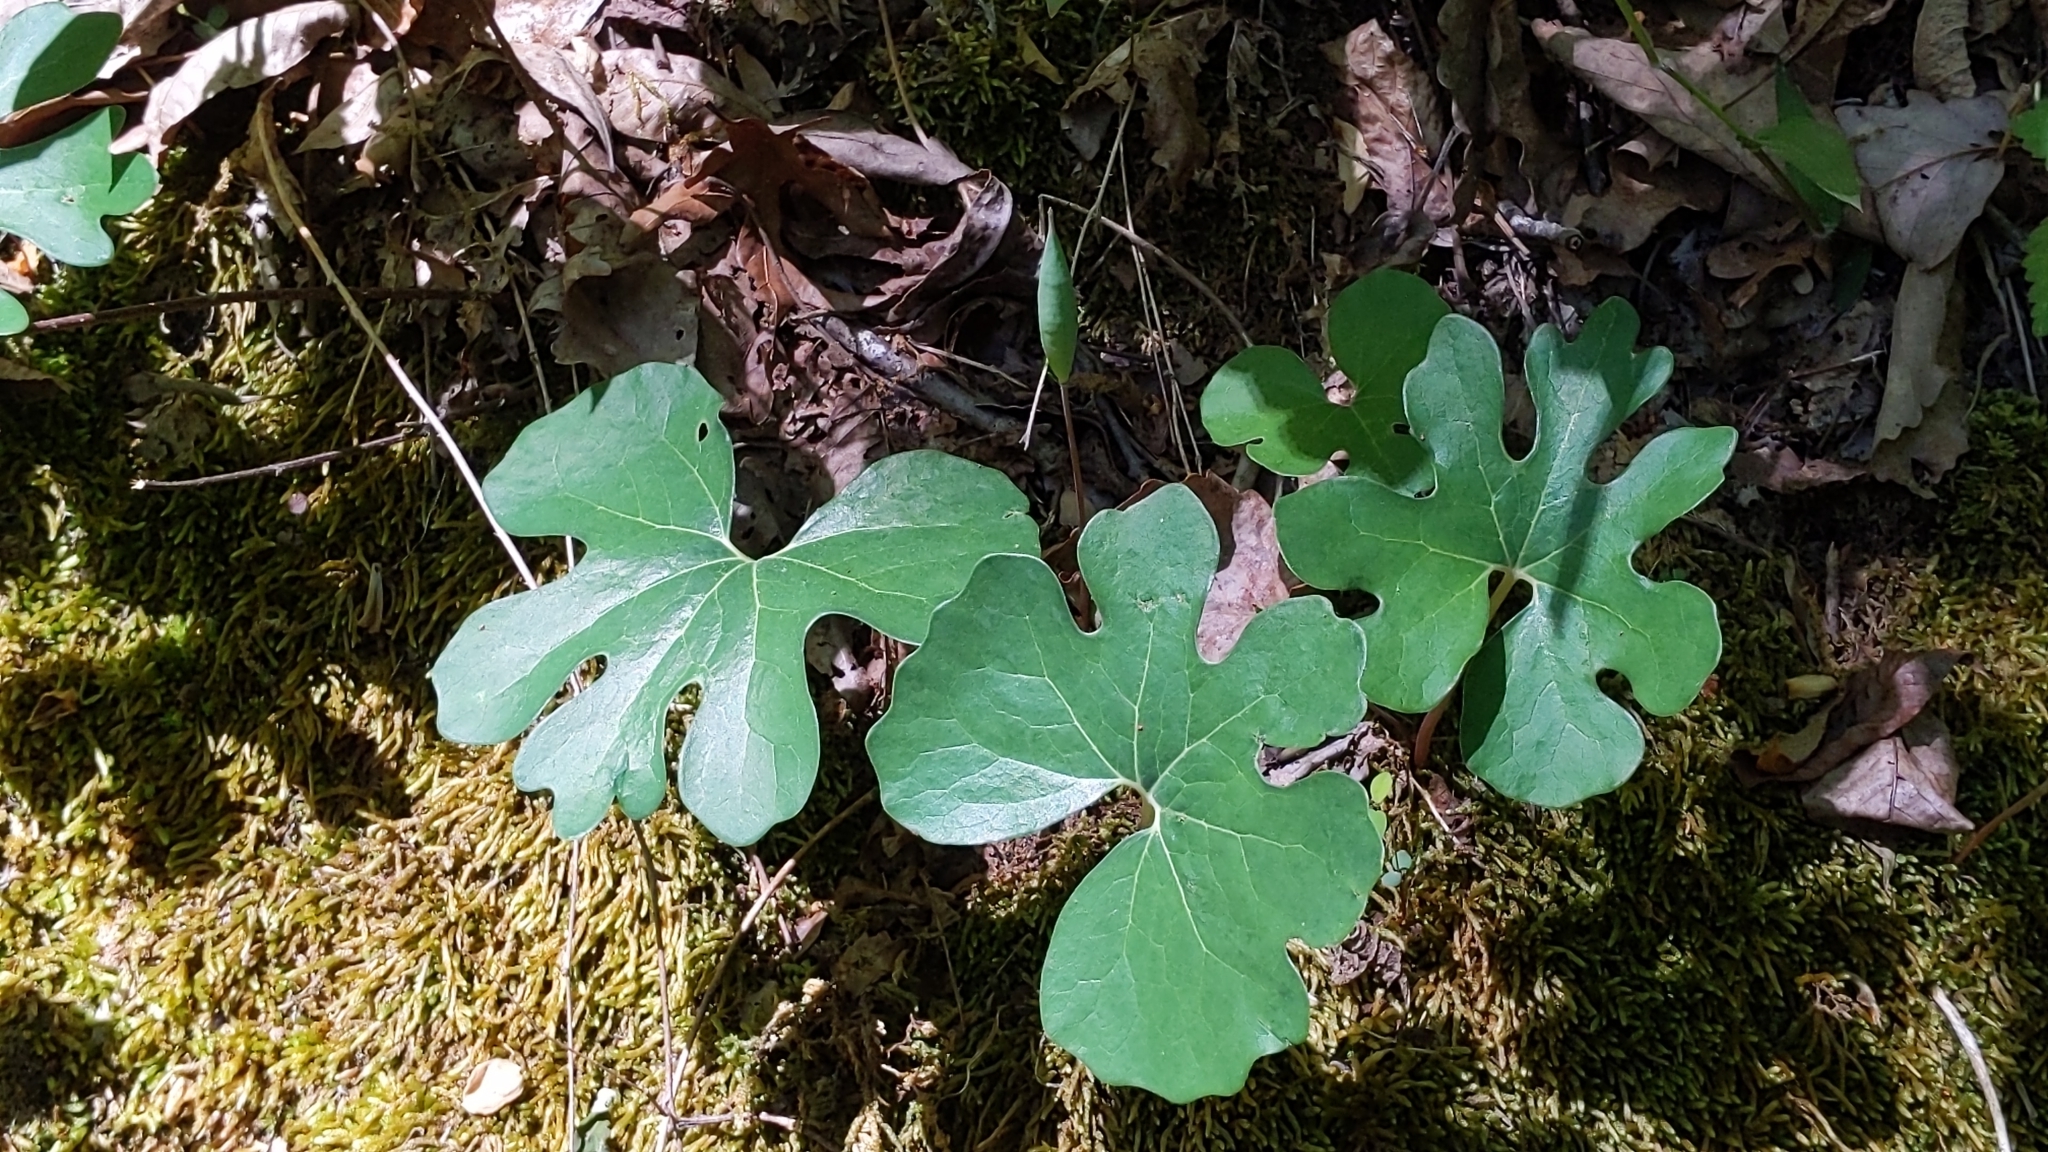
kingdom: Plantae
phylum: Tracheophyta
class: Magnoliopsida
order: Ranunculales
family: Papaveraceae
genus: Sanguinaria
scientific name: Sanguinaria canadensis
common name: Bloodroot
